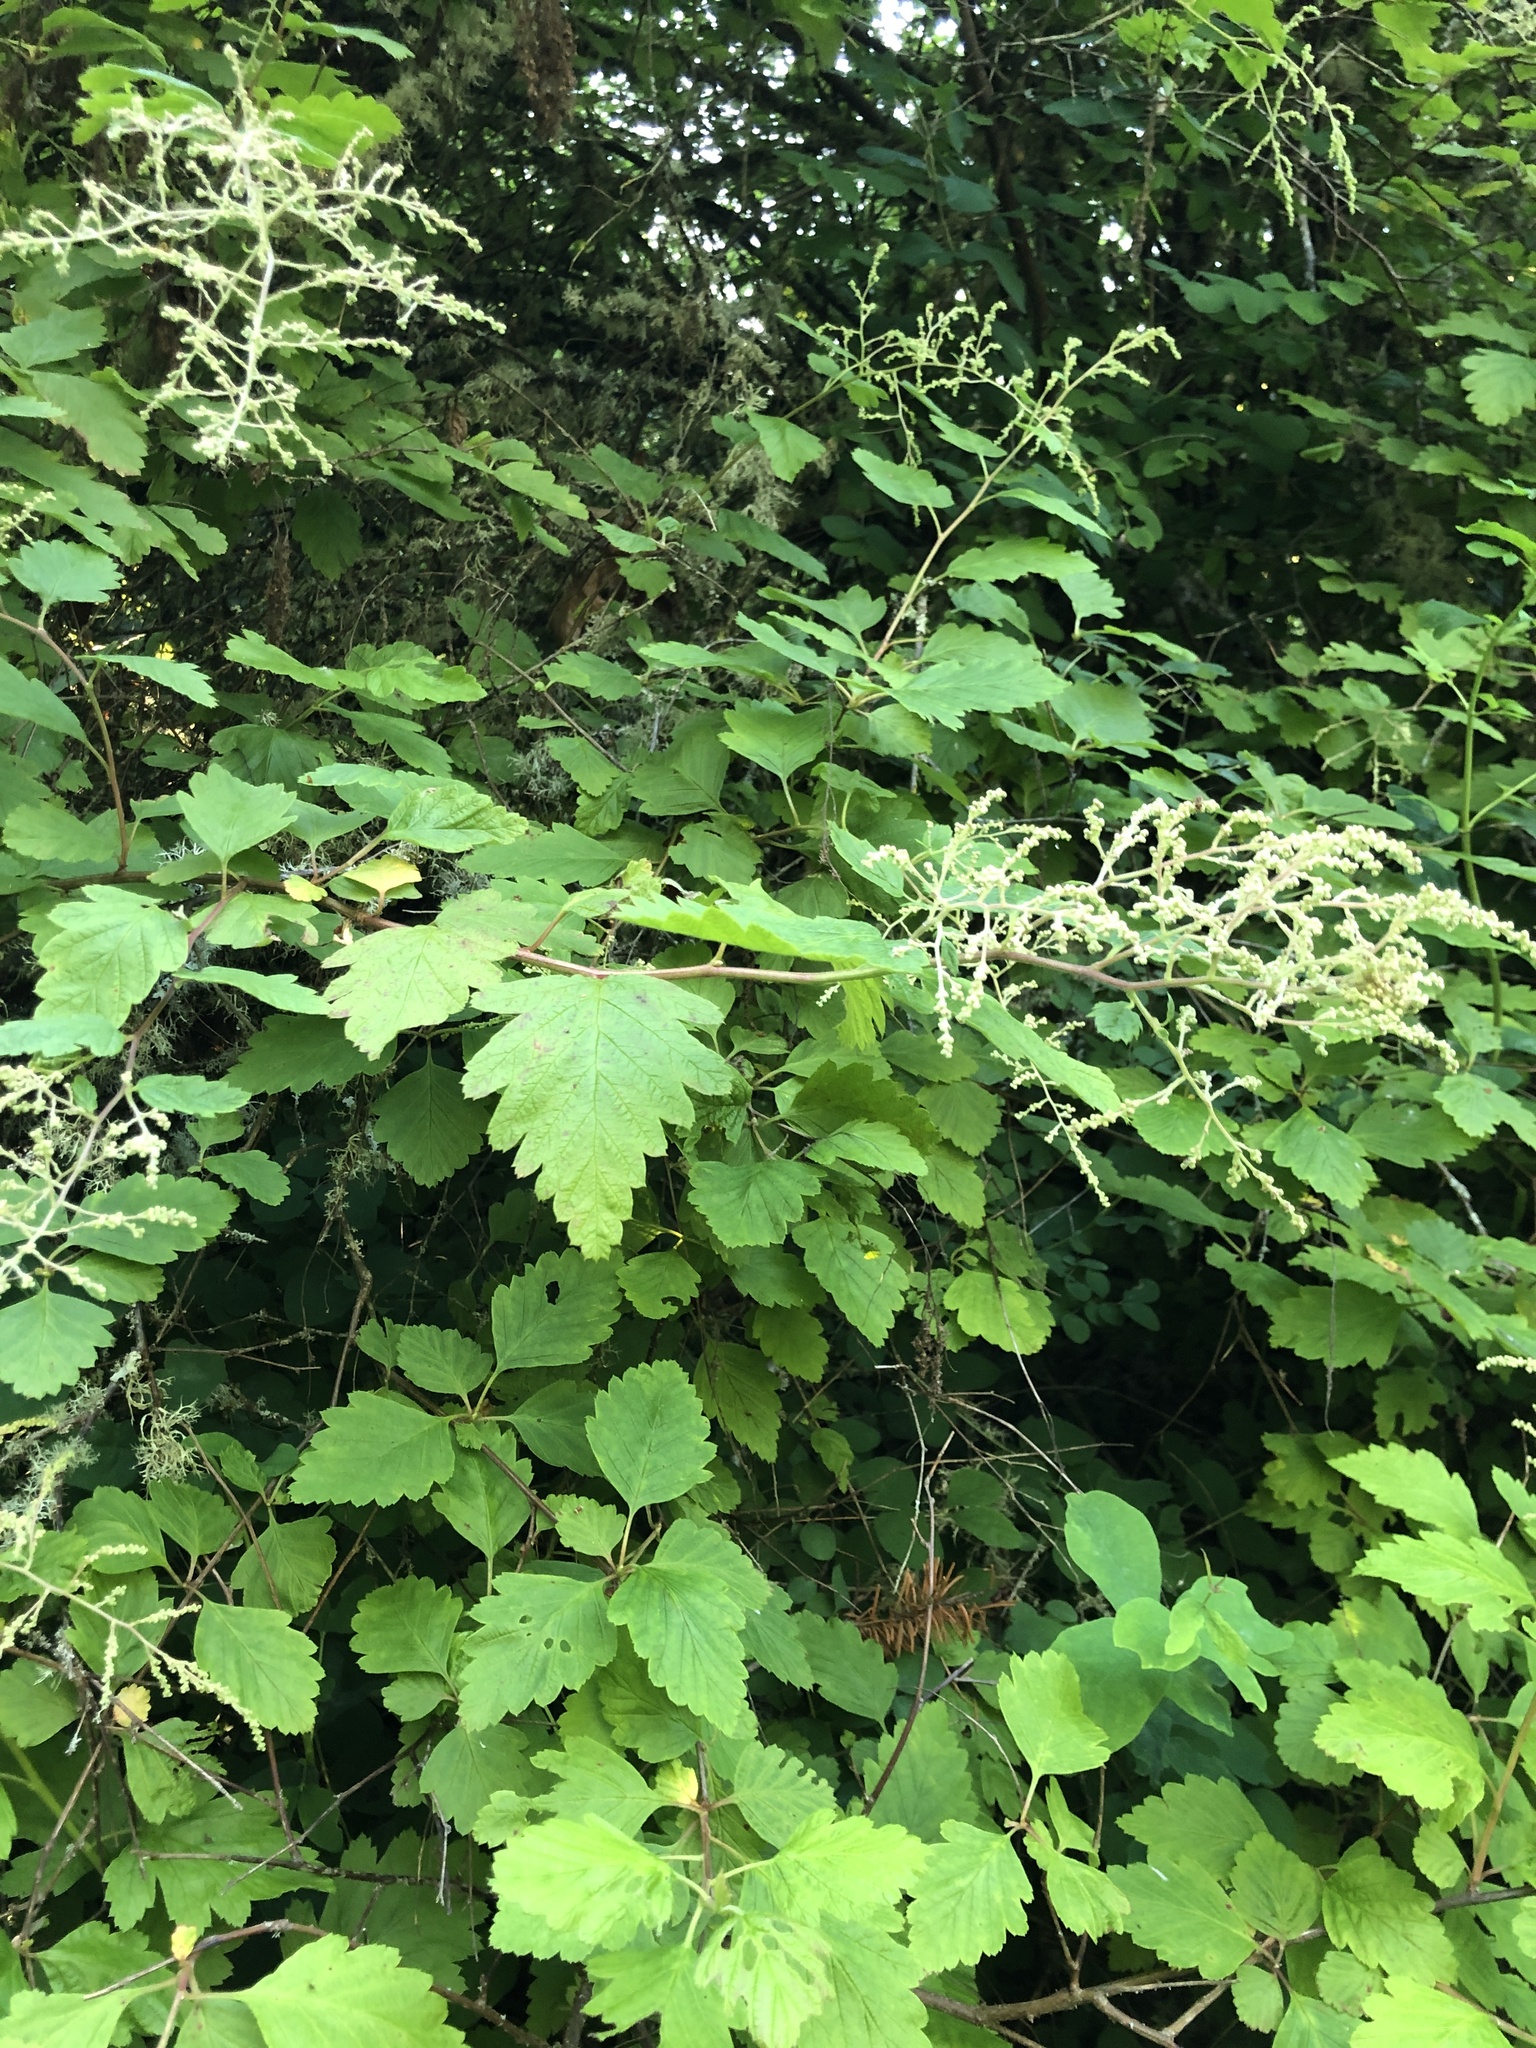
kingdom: Plantae
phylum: Tracheophyta
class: Magnoliopsida
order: Rosales
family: Rosaceae
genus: Holodiscus
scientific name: Holodiscus discolor
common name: Oceanspray
